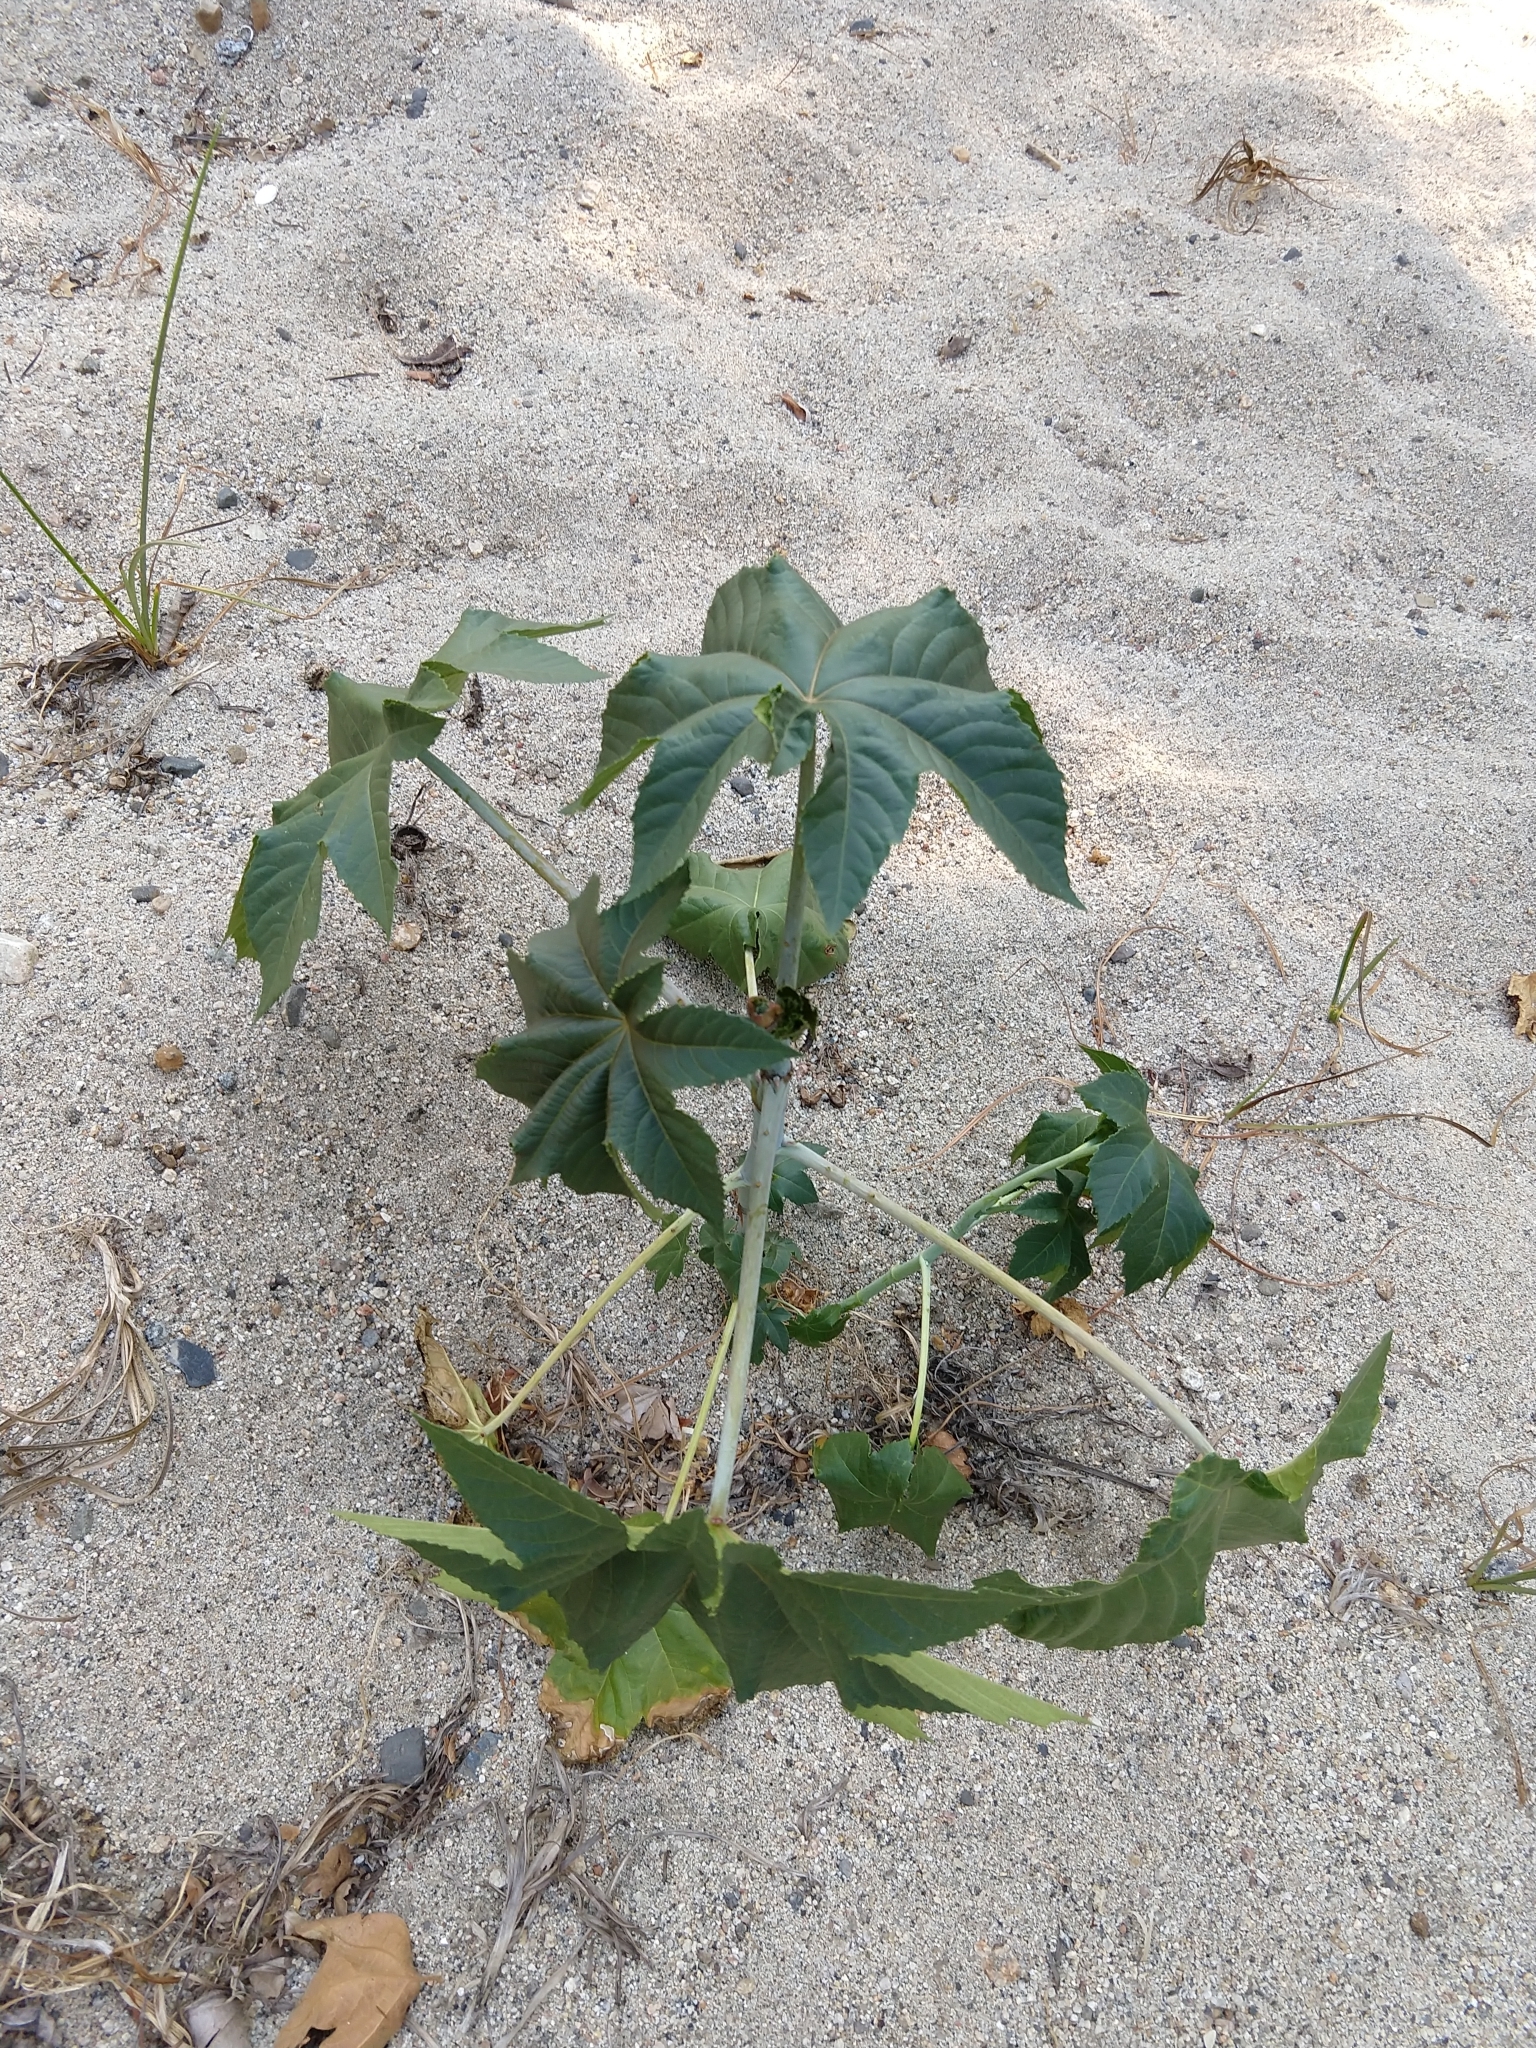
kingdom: Plantae
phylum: Tracheophyta
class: Magnoliopsida
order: Malpighiales
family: Euphorbiaceae
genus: Ricinus
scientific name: Ricinus communis
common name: Castor-oil-plant
